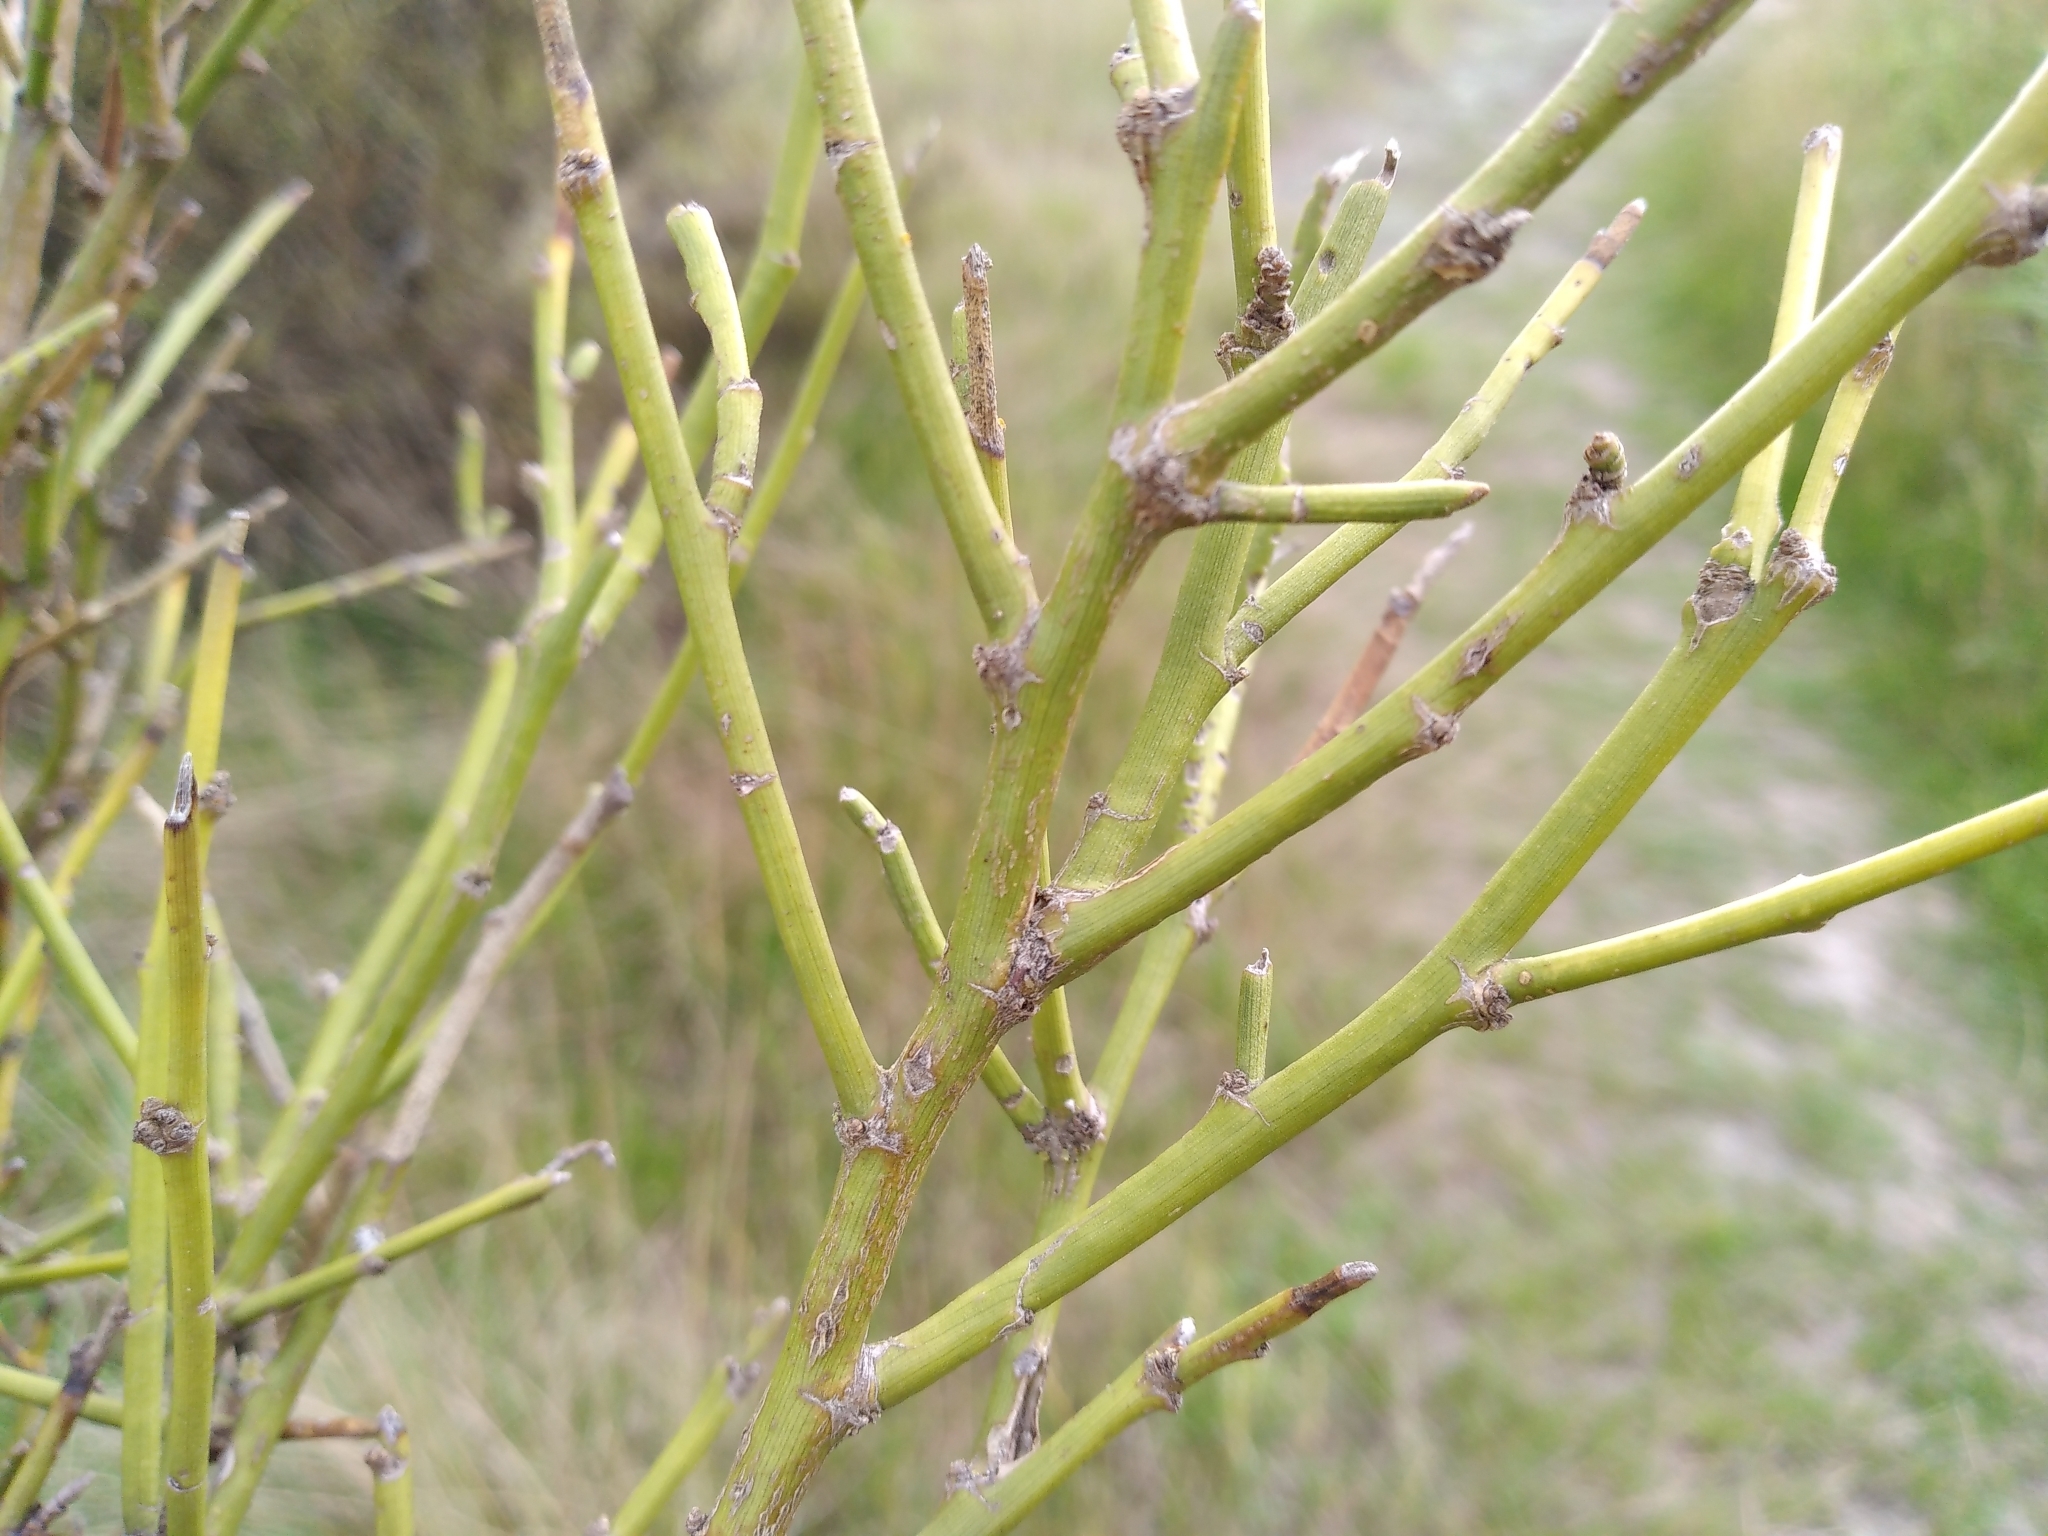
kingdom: Plantae
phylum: Tracheophyta
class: Magnoliopsida
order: Fabales
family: Fabaceae
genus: Carmichaelia
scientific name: Carmichaelia petriei
